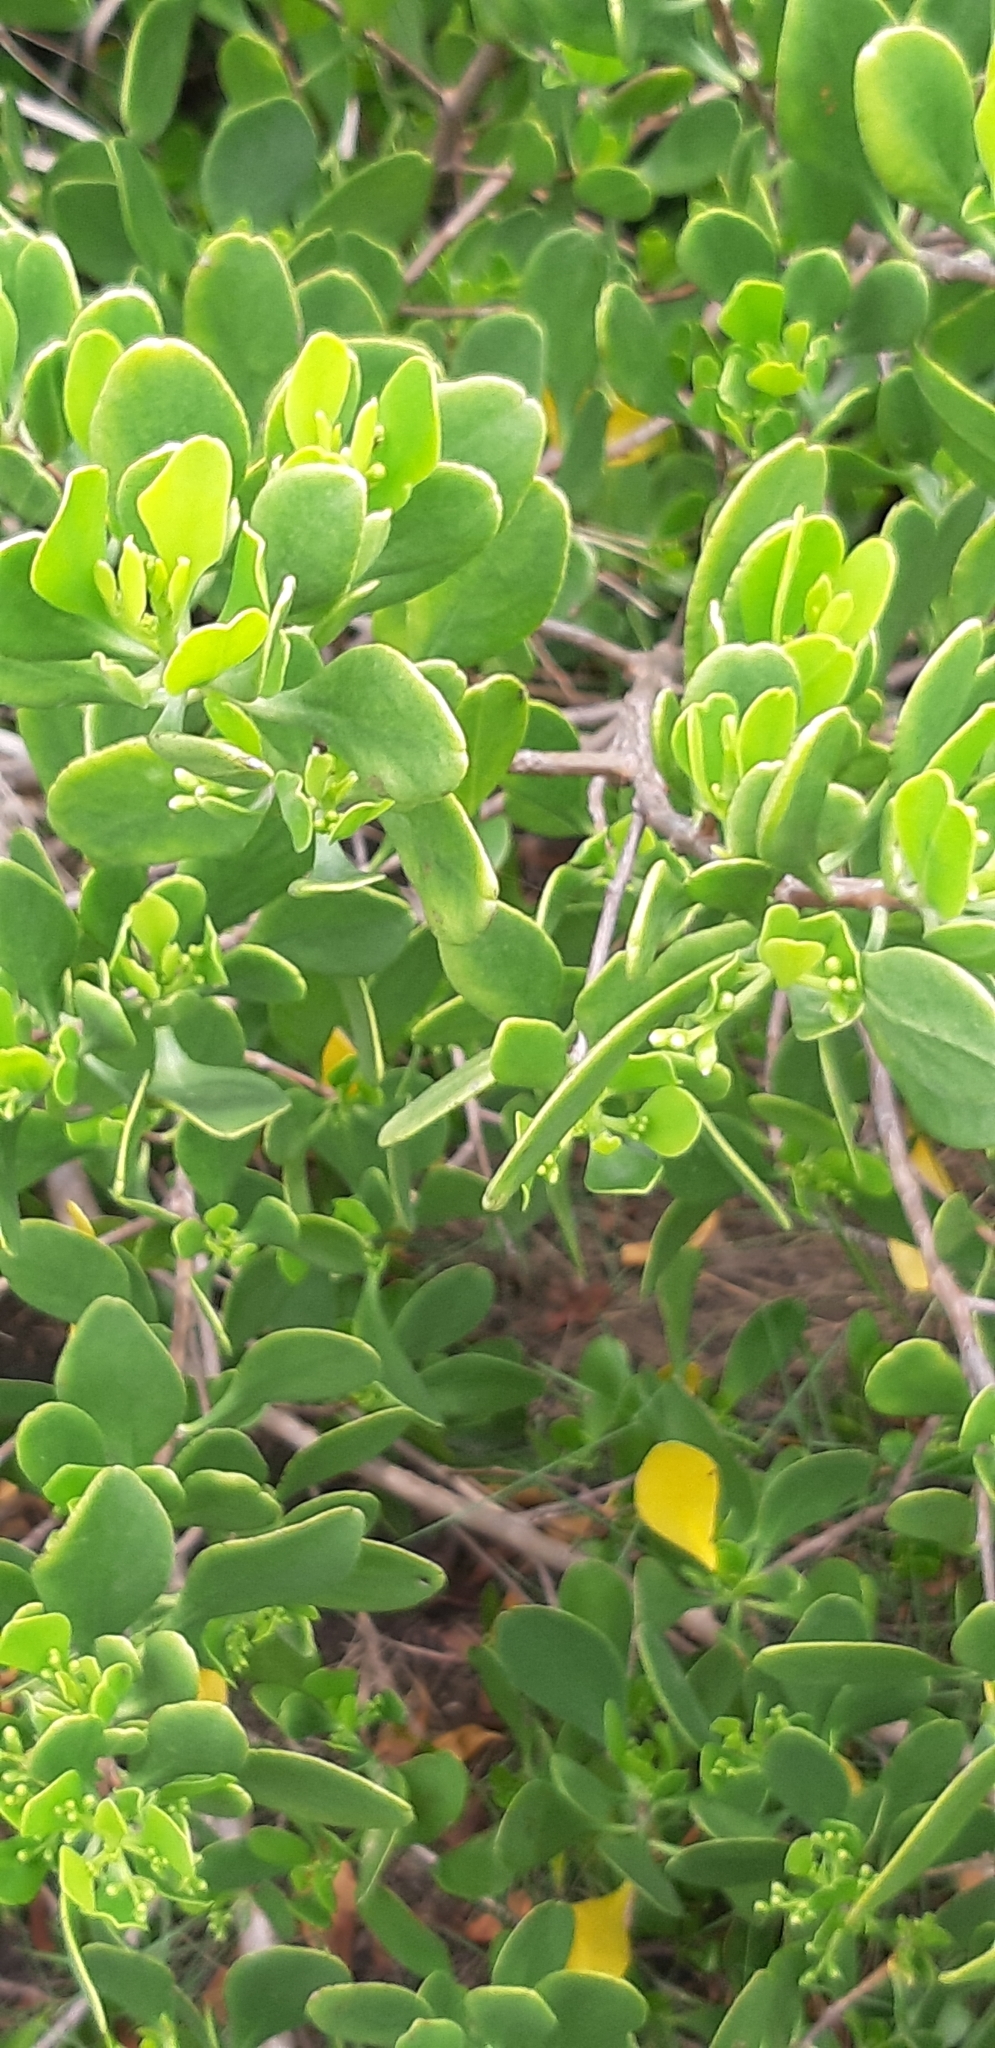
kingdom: Plantae
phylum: Tracheophyta
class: Magnoliopsida
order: Myrtales
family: Combretaceae
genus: Lumnitzera
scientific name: Lumnitzera racemosa
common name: White-flowered black mangrove
